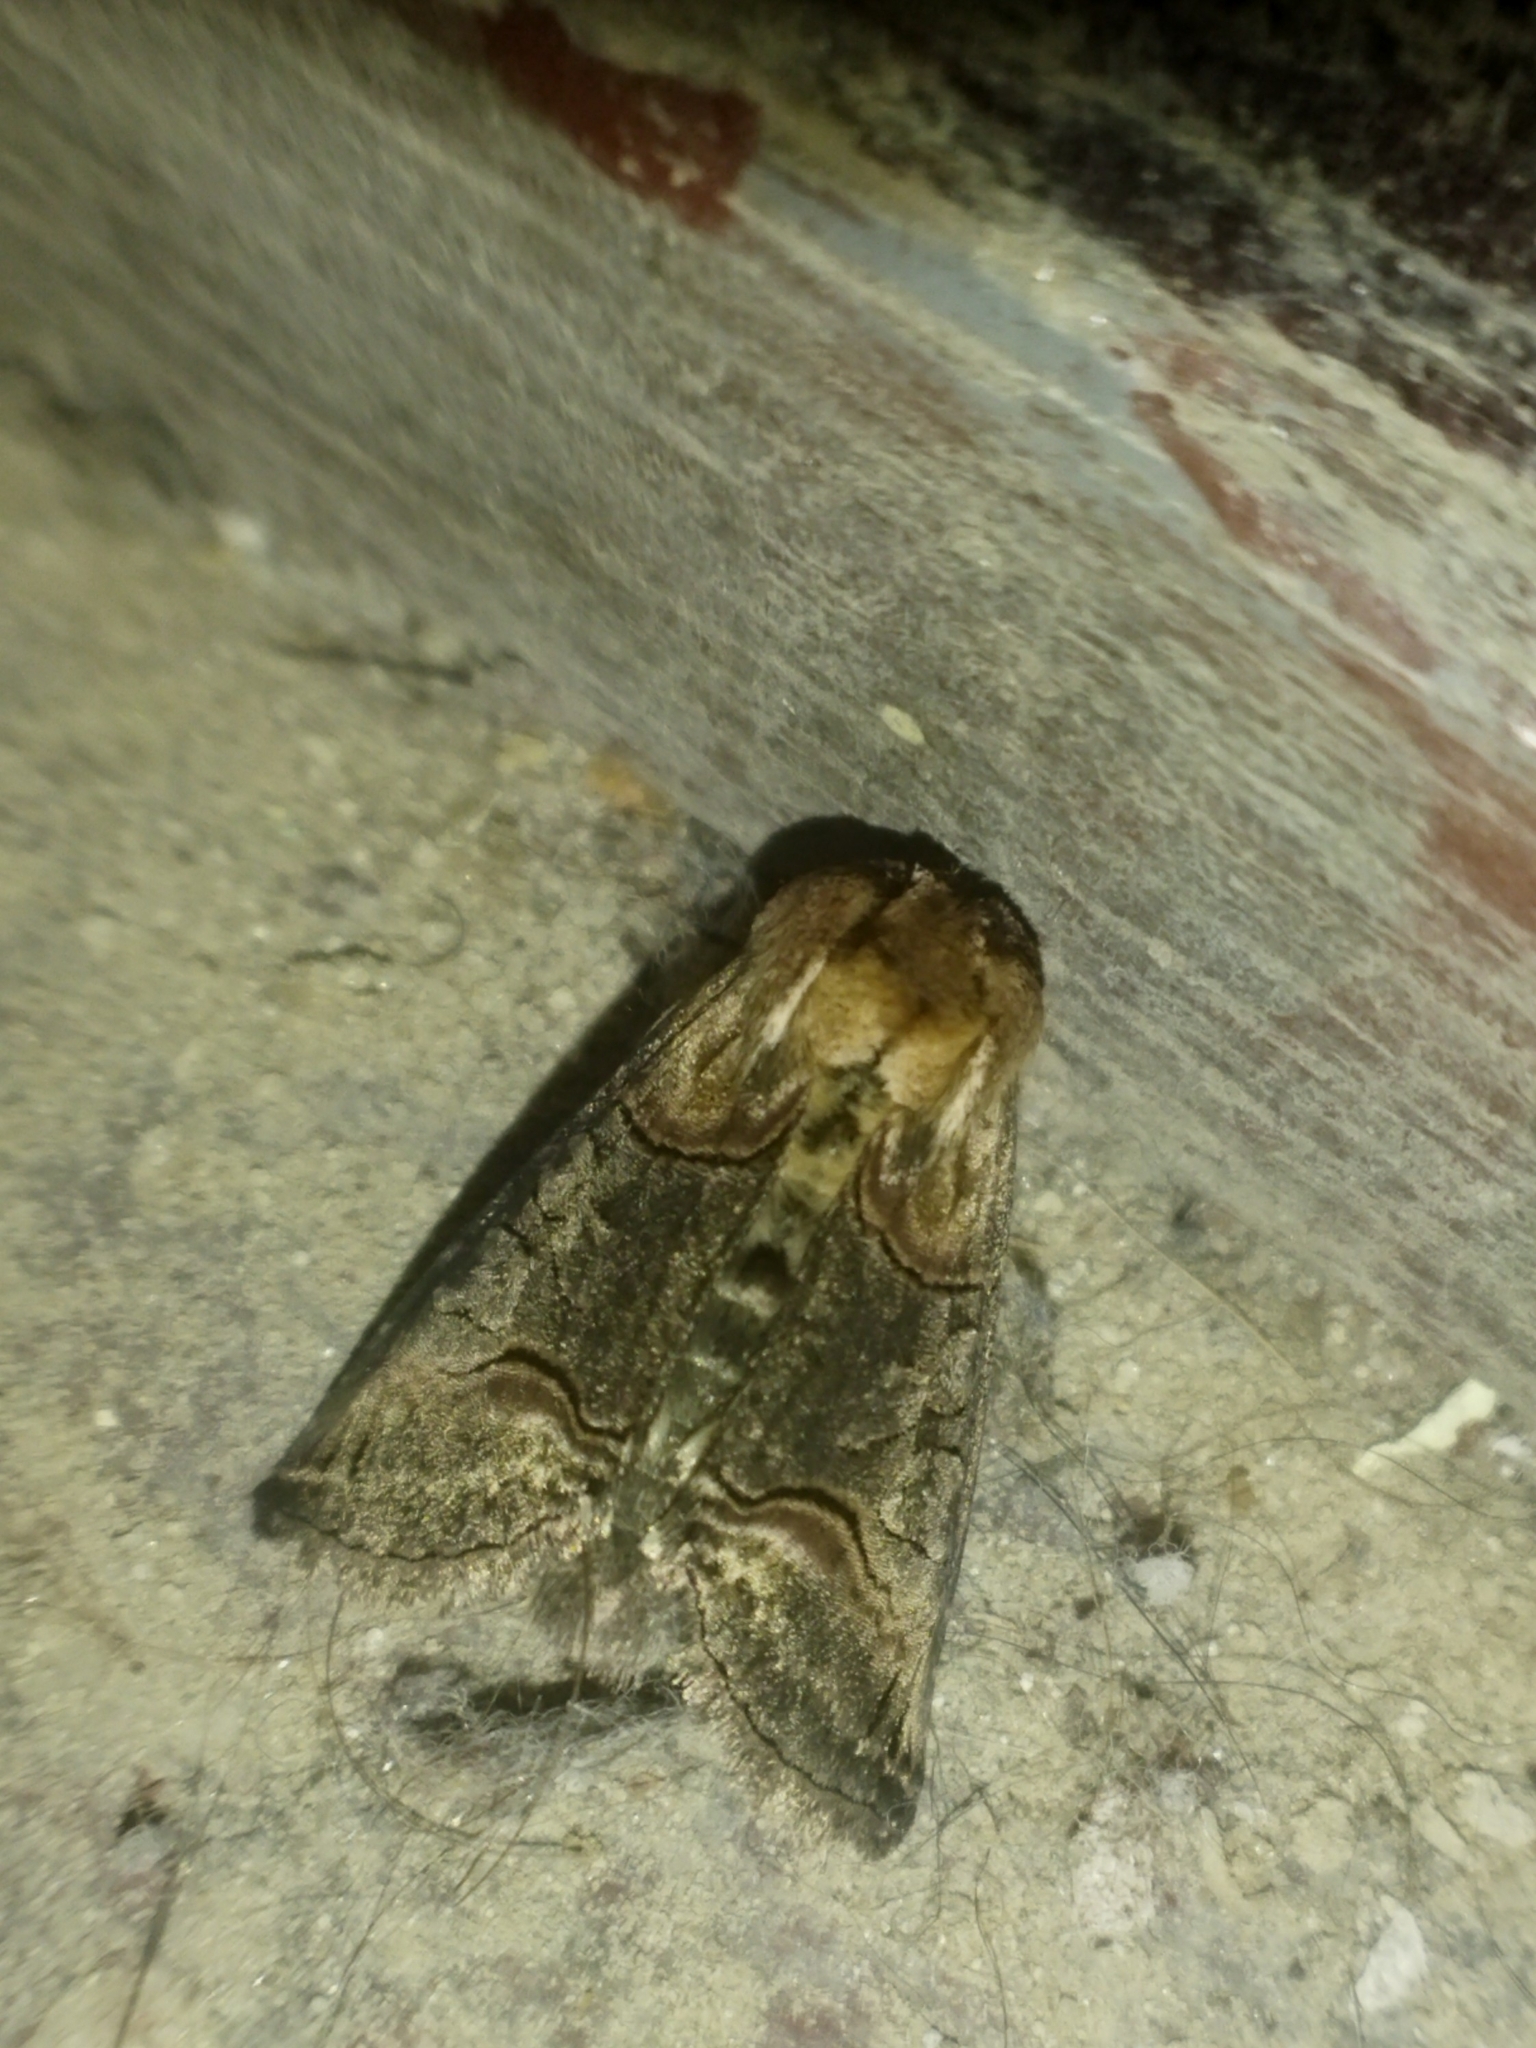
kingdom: Animalia
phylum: Arthropoda
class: Insecta
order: Lepidoptera
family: Noctuidae
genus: Abrostola
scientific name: Abrostola triplasia
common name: Dark spectacle
